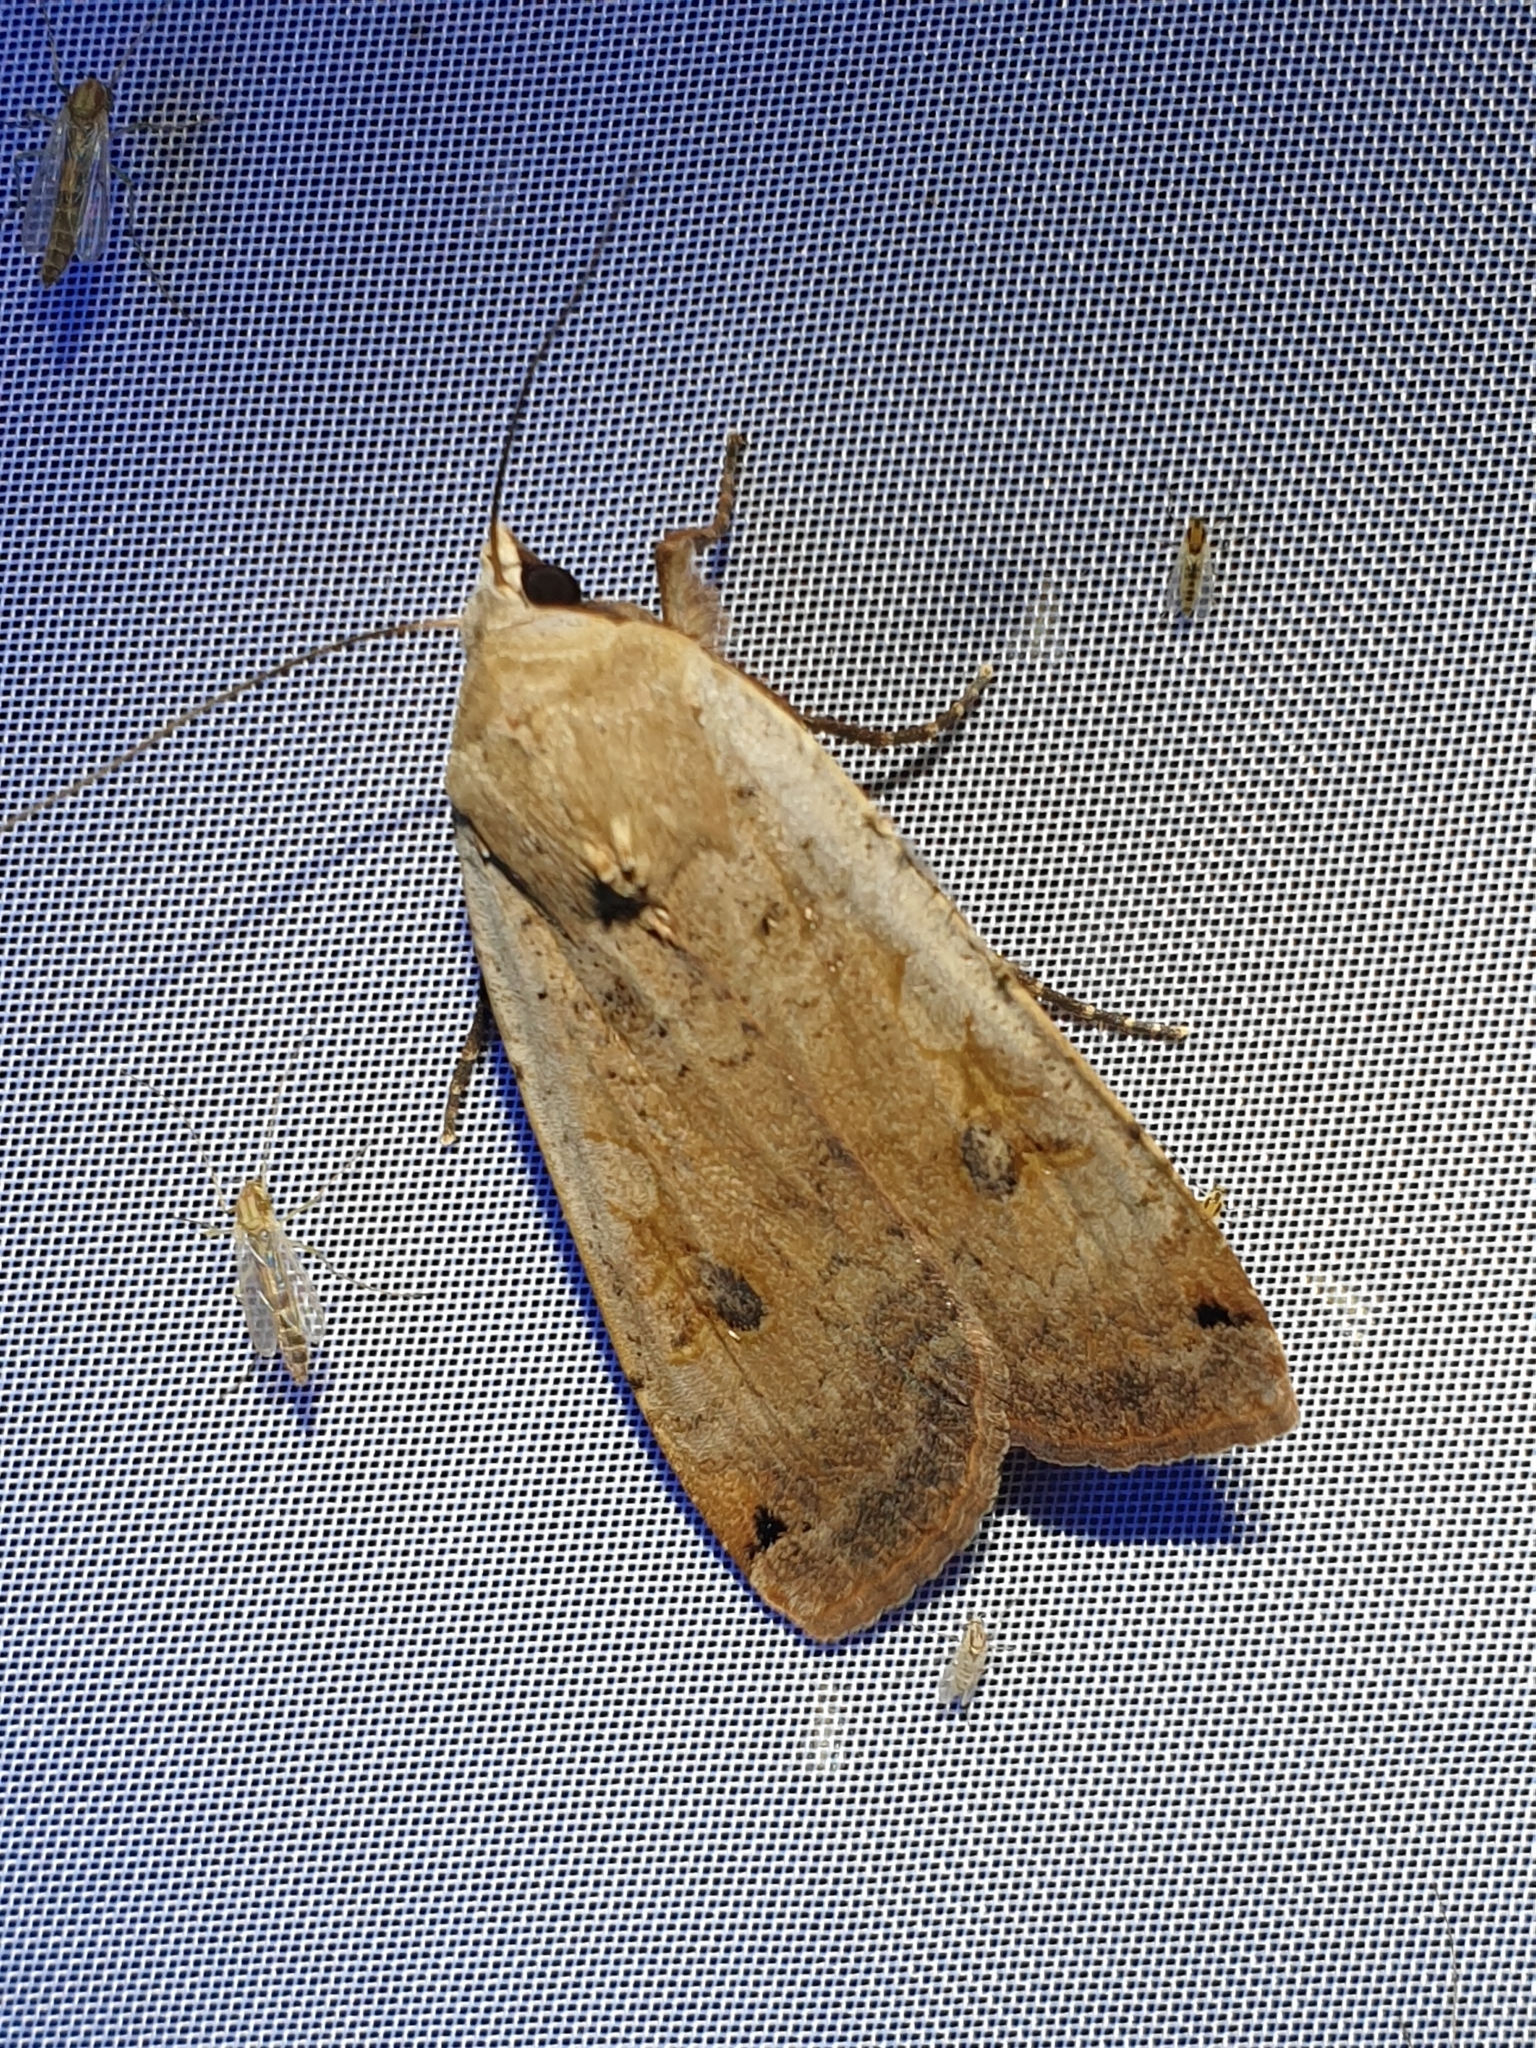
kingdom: Animalia
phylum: Arthropoda
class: Insecta
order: Lepidoptera
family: Noctuidae
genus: Noctua
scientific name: Noctua pronuba
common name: Large yellow underwing
